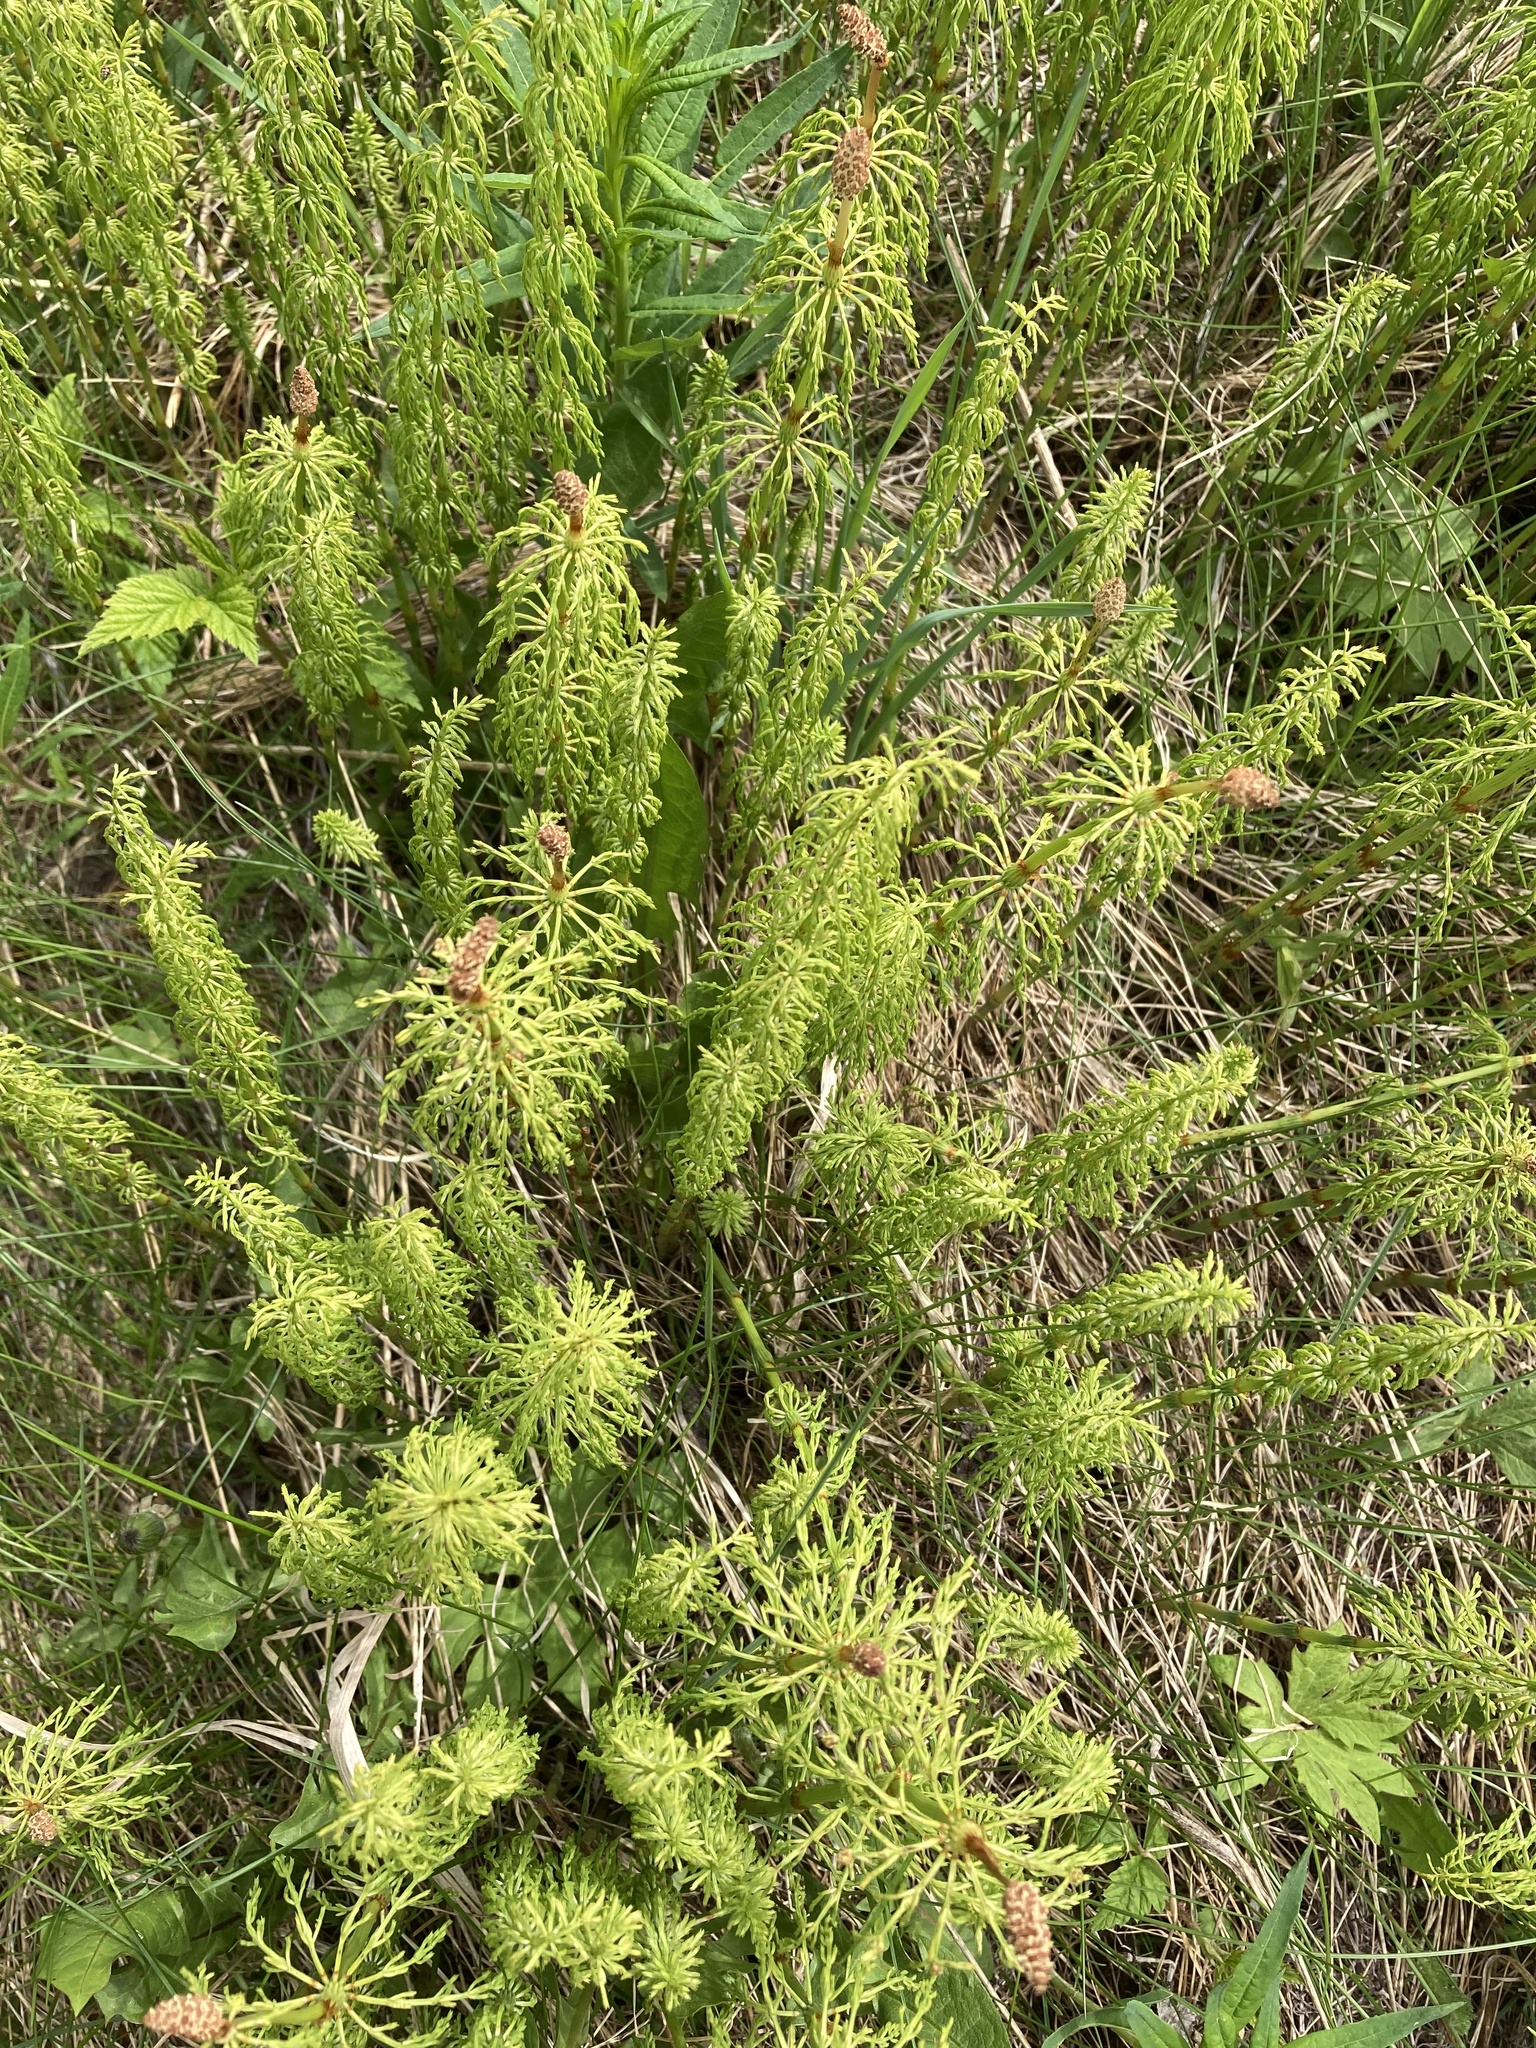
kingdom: Plantae
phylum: Tracheophyta
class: Polypodiopsida
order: Equisetales
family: Equisetaceae
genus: Equisetum
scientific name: Equisetum sylvaticum
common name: Wood horsetail
